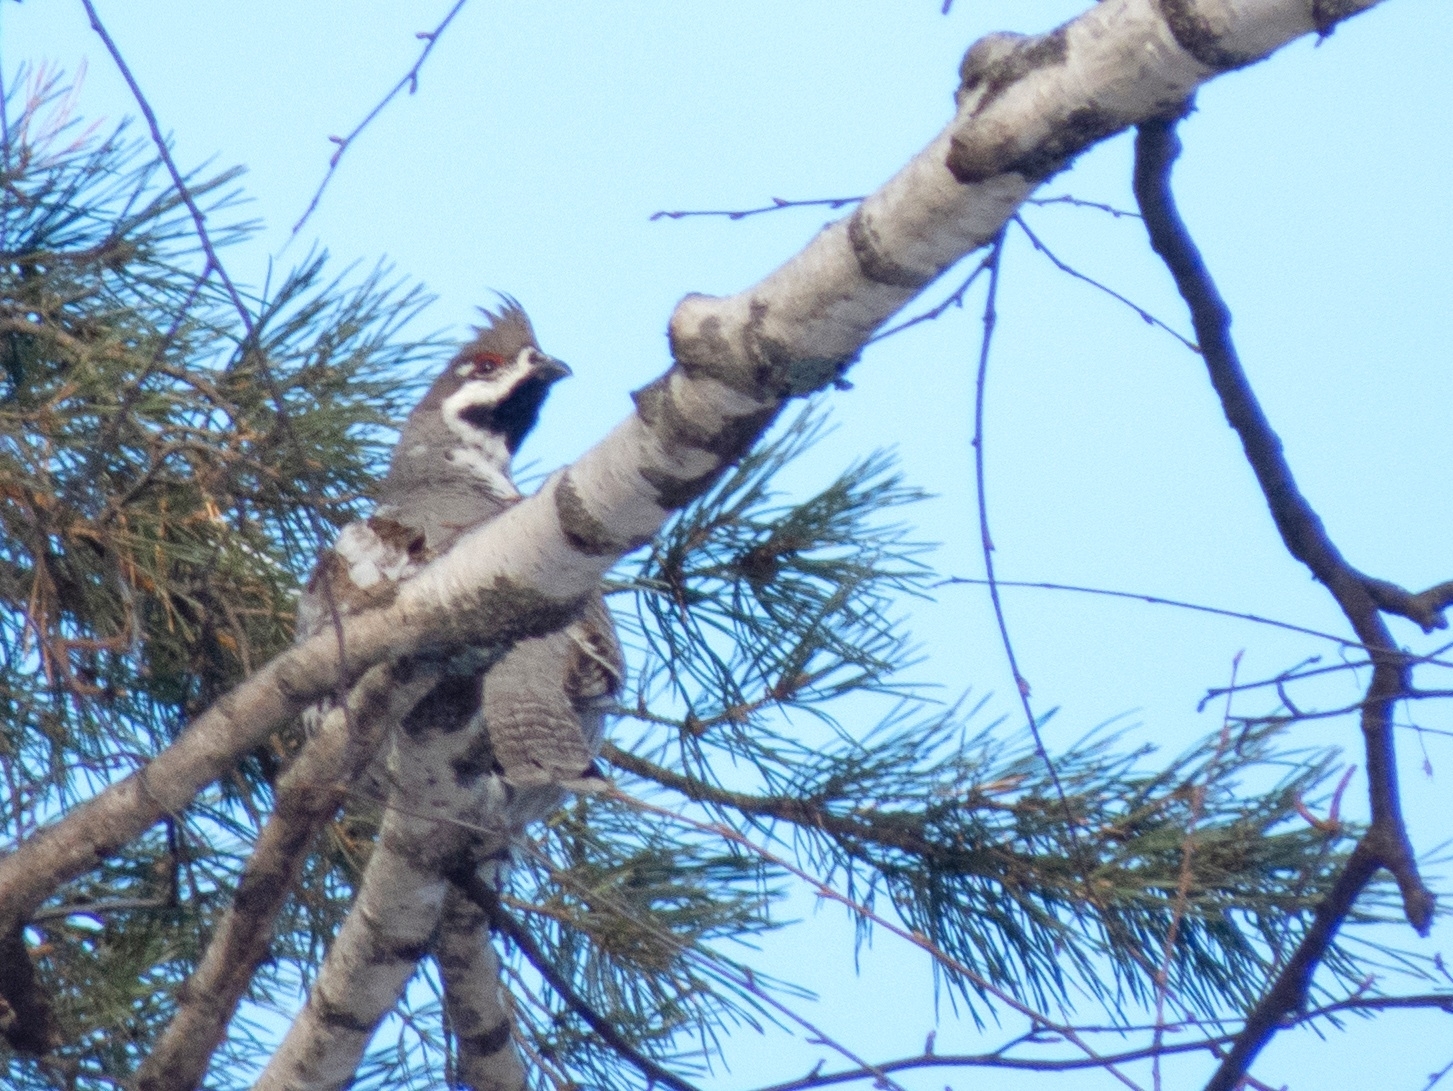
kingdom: Animalia
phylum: Chordata
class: Aves
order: Galliformes
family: Phasianidae
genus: Tetrastes
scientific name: Tetrastes bonasia
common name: Hazel grouse
